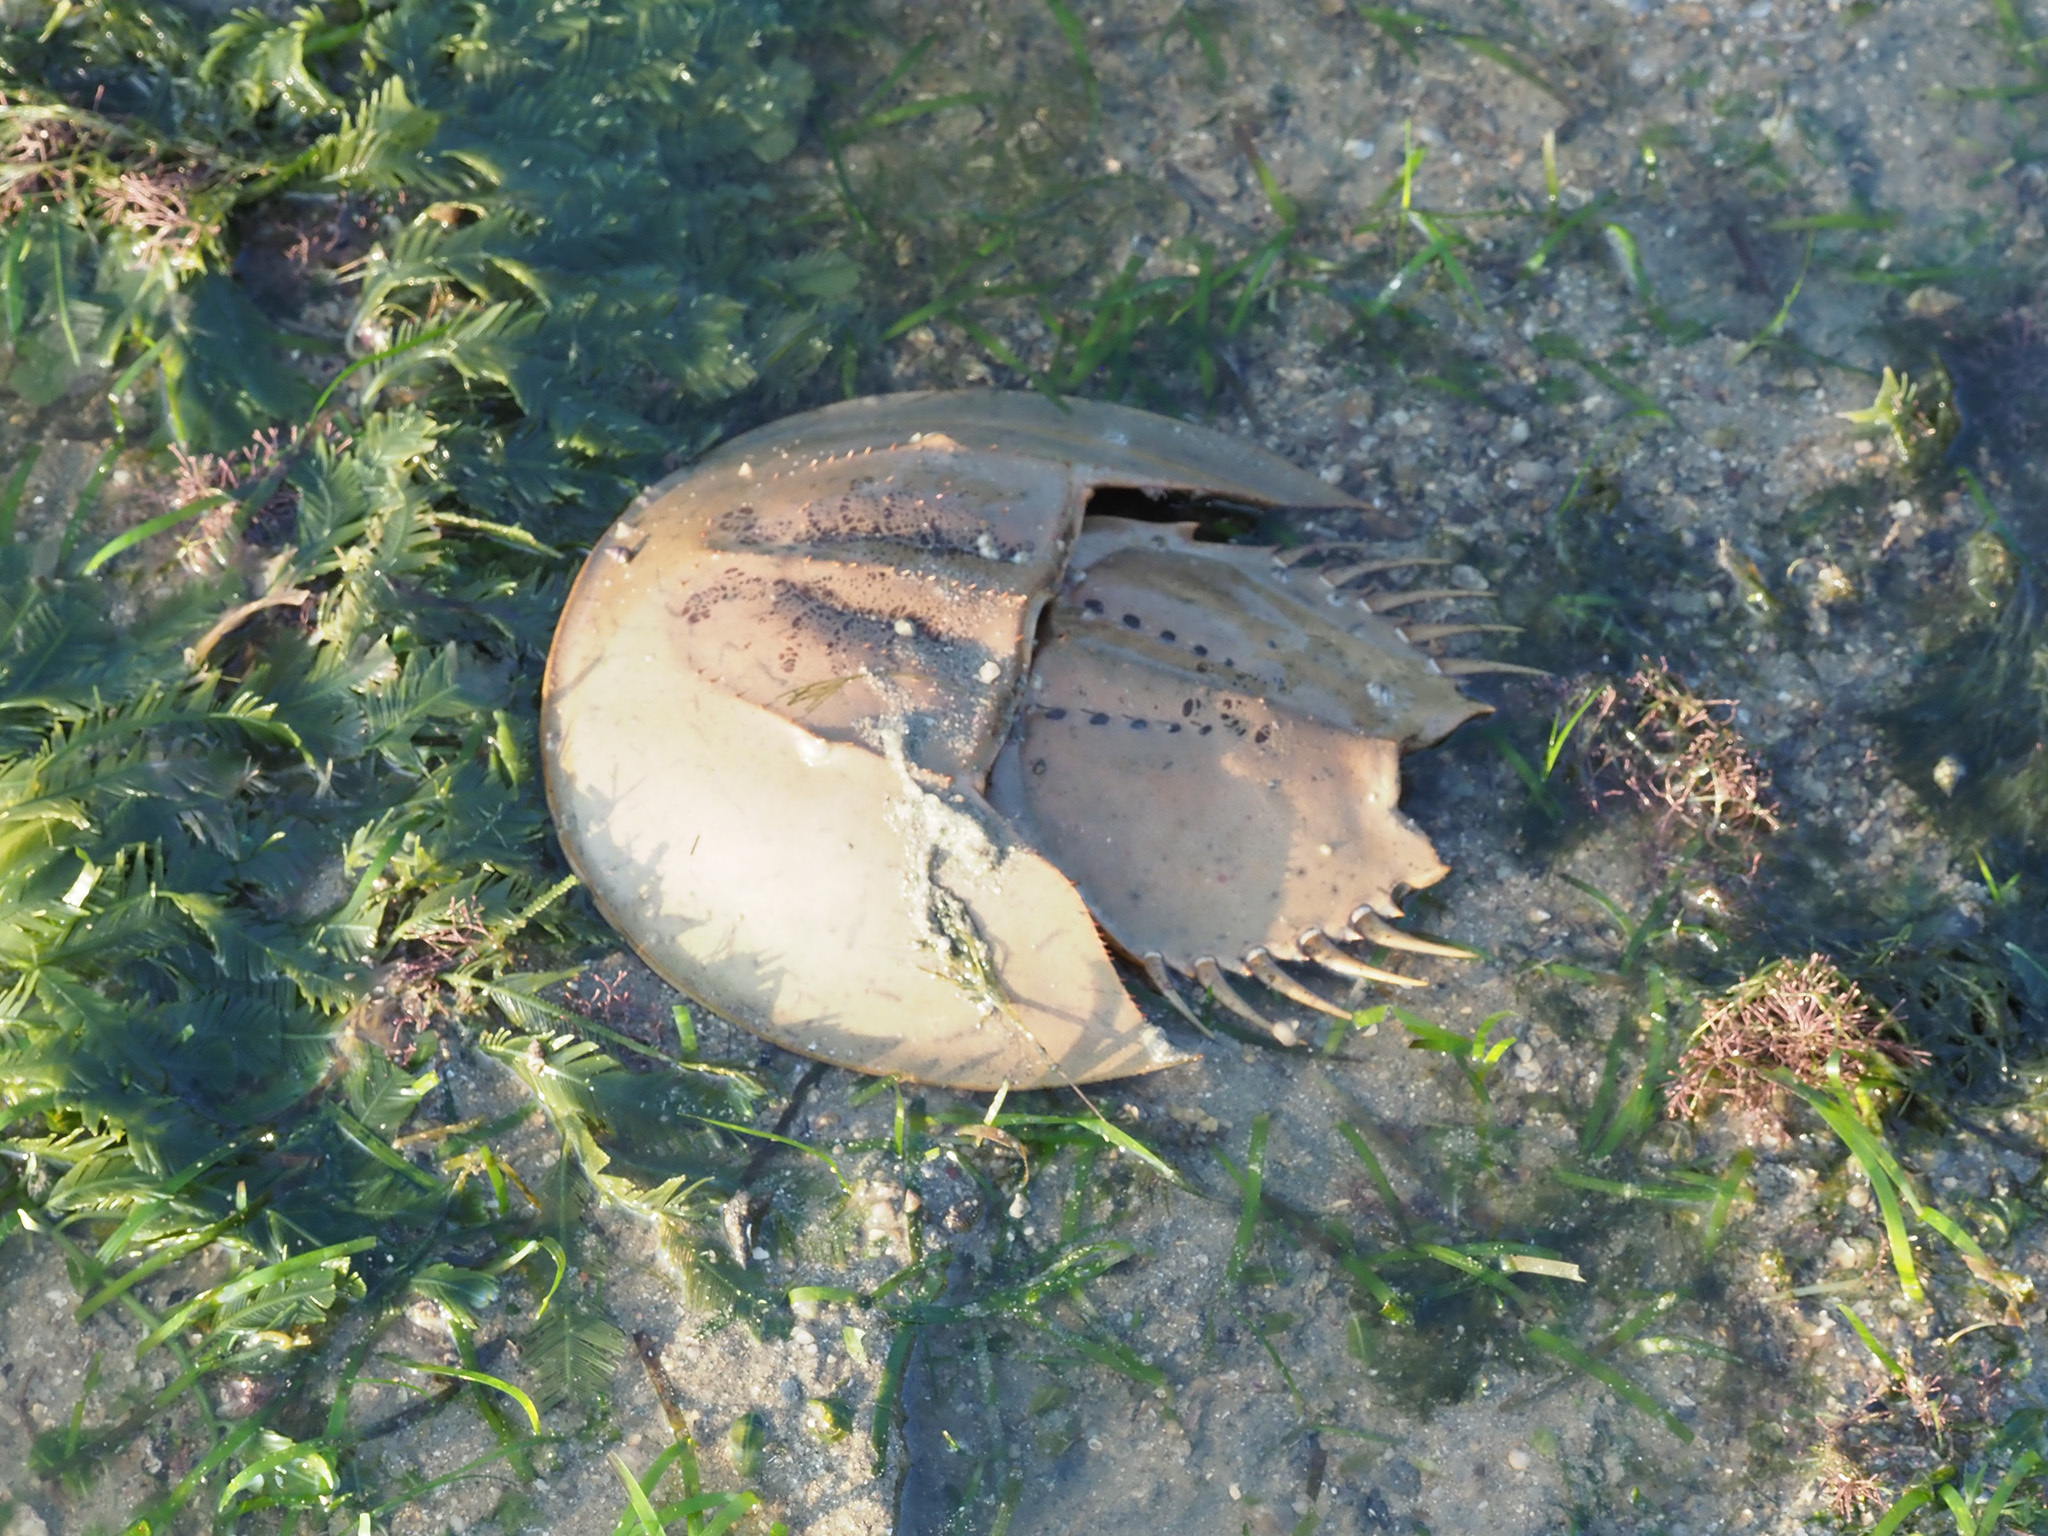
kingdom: Animalia
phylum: Arthropoda
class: Merostomata
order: Xiphosurida
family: Limulidae
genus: Tachypleus
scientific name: Tachypleus gigas
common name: Coastal horseshoe crab
